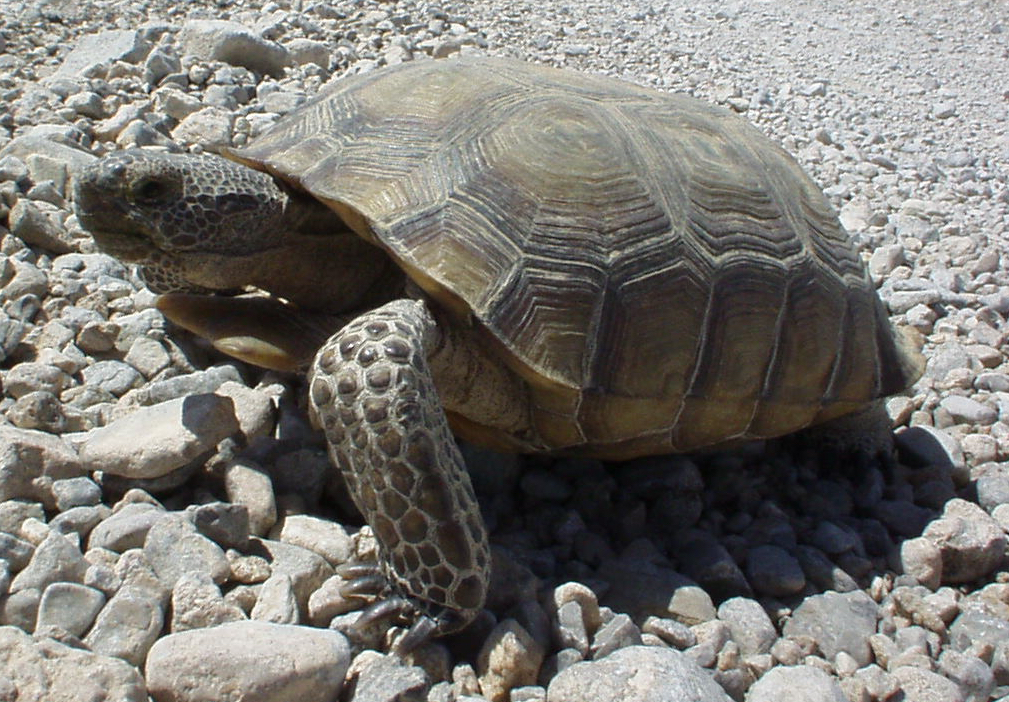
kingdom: Animalia
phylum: Chordata
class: Testudines
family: Testudinidae
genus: Gopherus
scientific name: Gopherus agassizii
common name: Mojave desert tortoise
